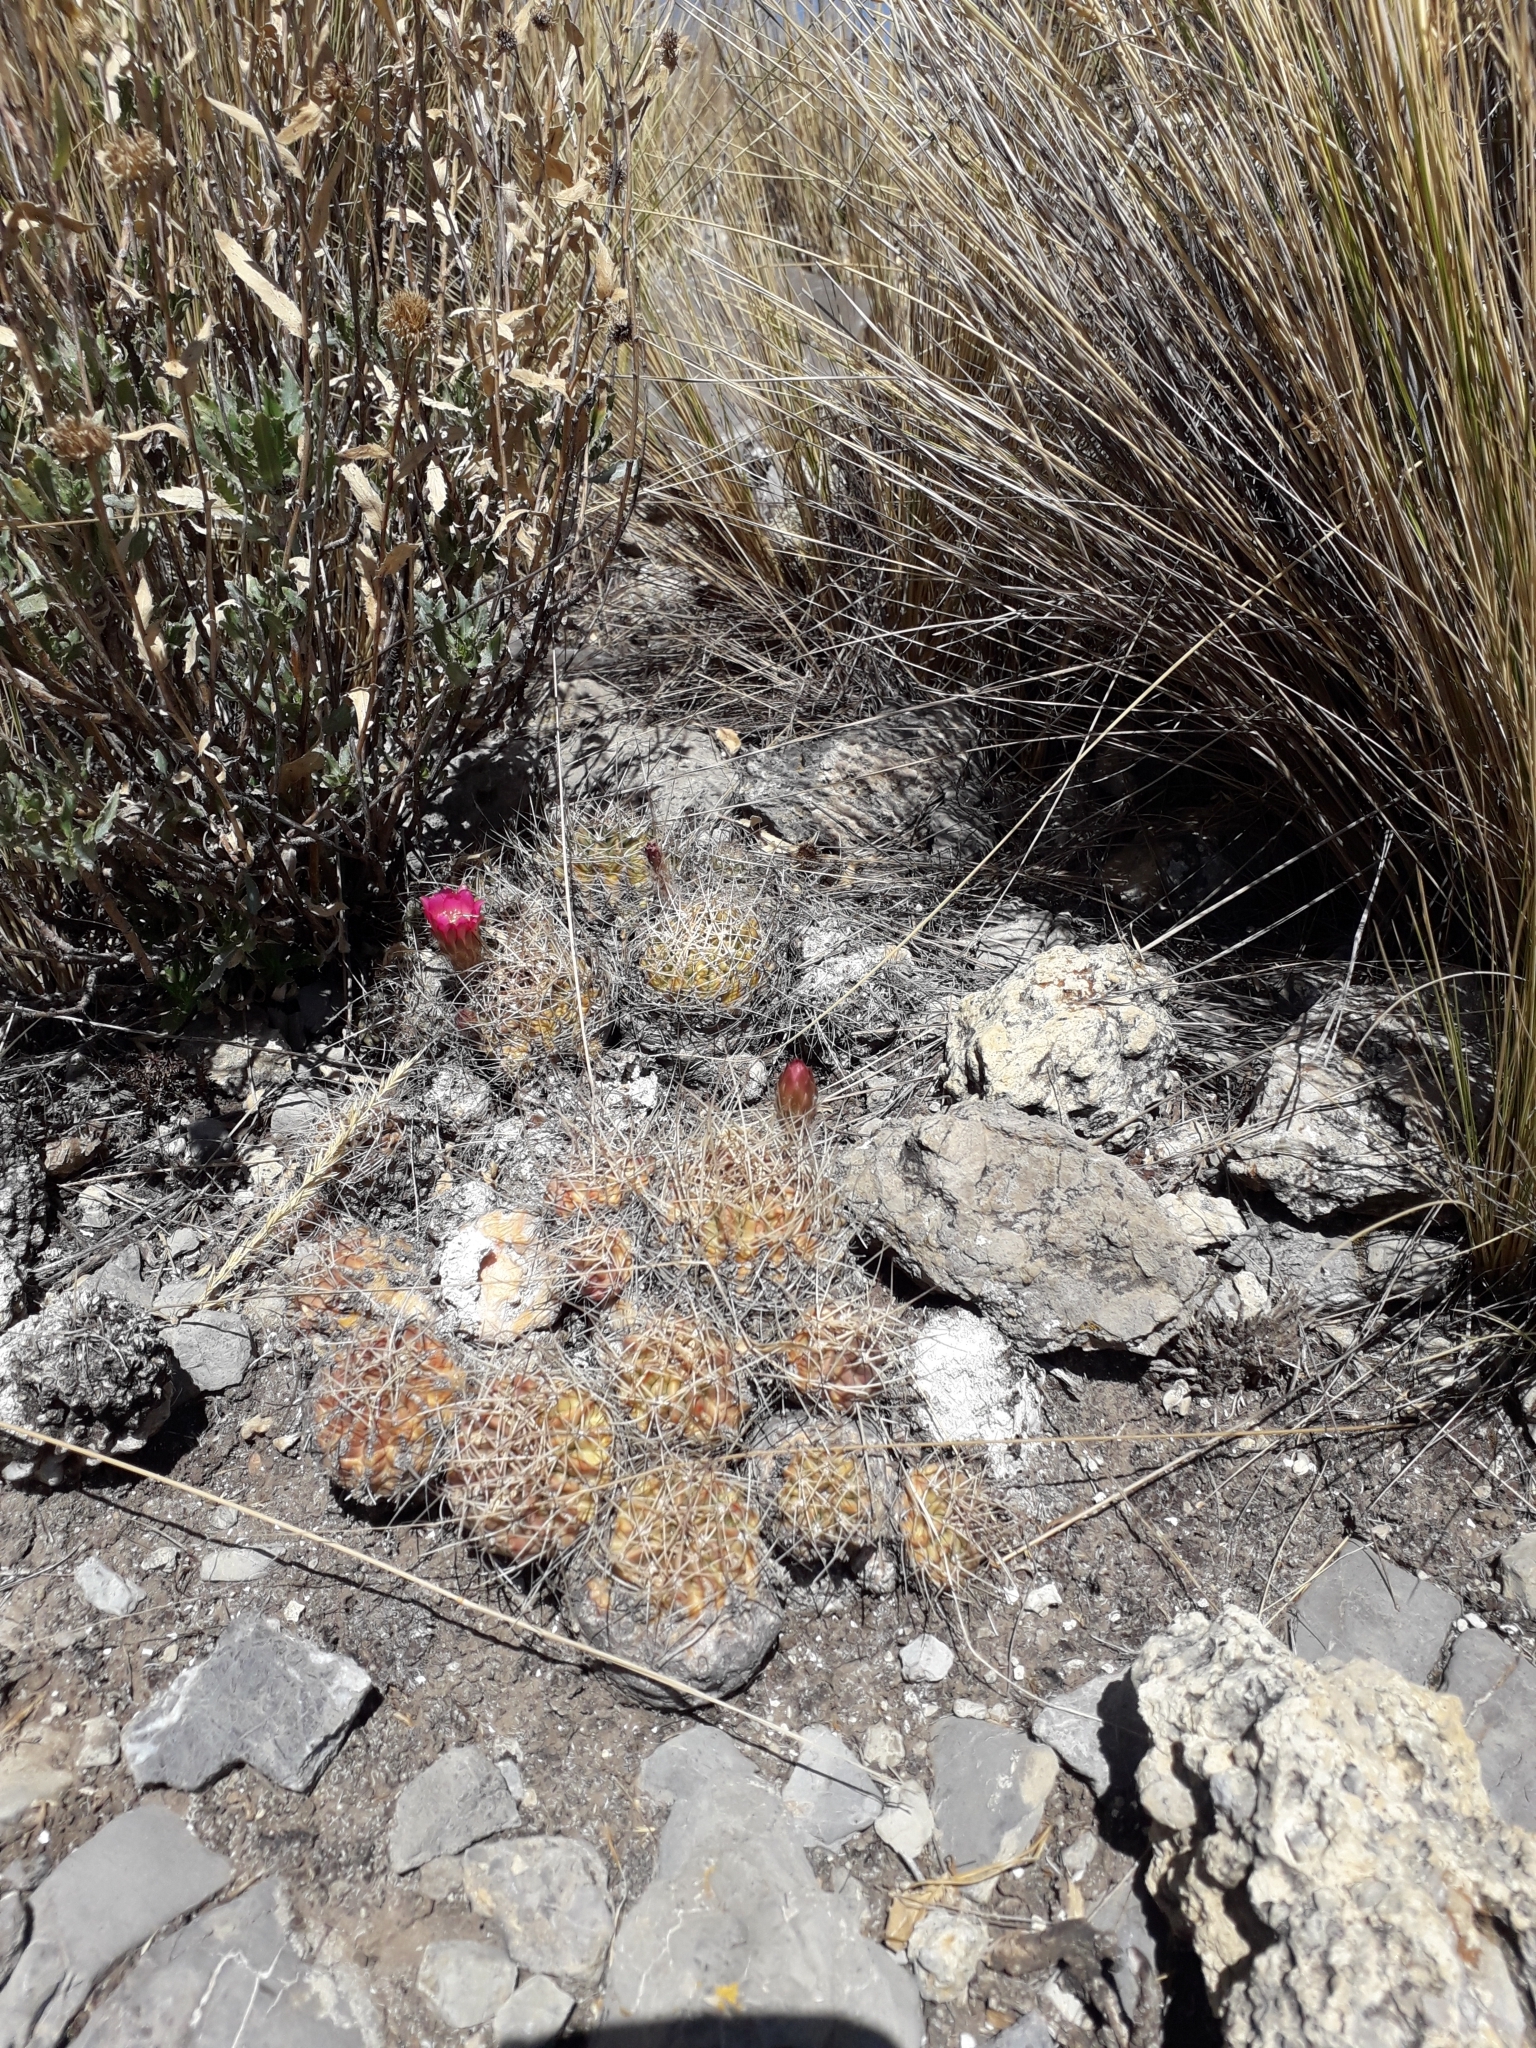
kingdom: Plantae
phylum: Tracheophyta
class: Magnoliopsida
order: Caryophyllales
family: Cactaceae
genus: Lobivia
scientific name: Lobivia pentlandii
